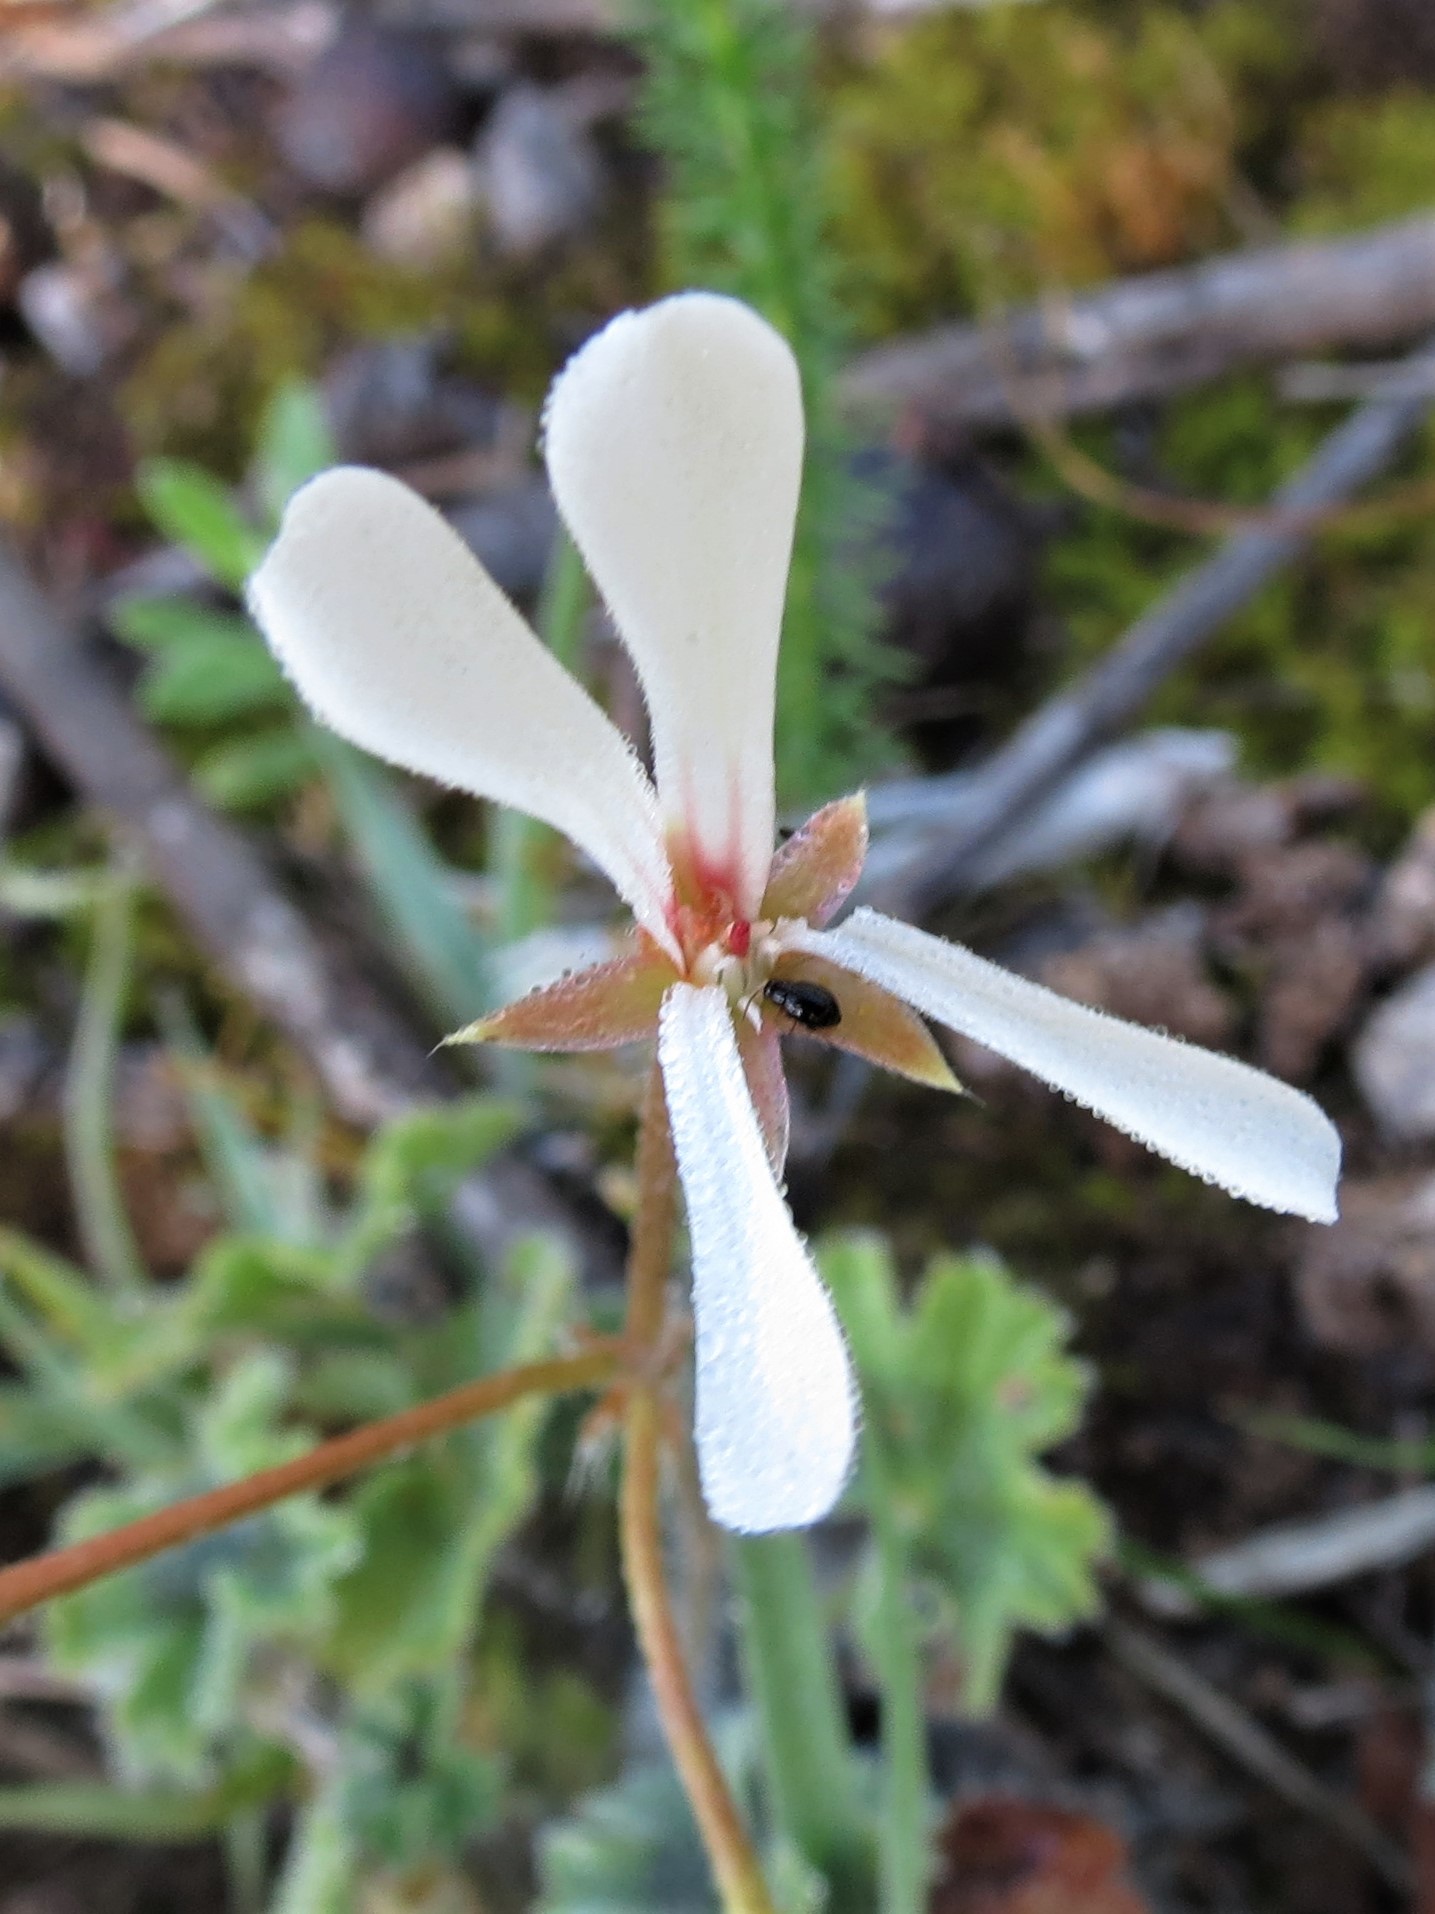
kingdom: Plantae
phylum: Tracheophyta
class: Magnoliopsida
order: Geraniales
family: Geraniaceae
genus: Pelargonium
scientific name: Pelargonium alchemilloides
